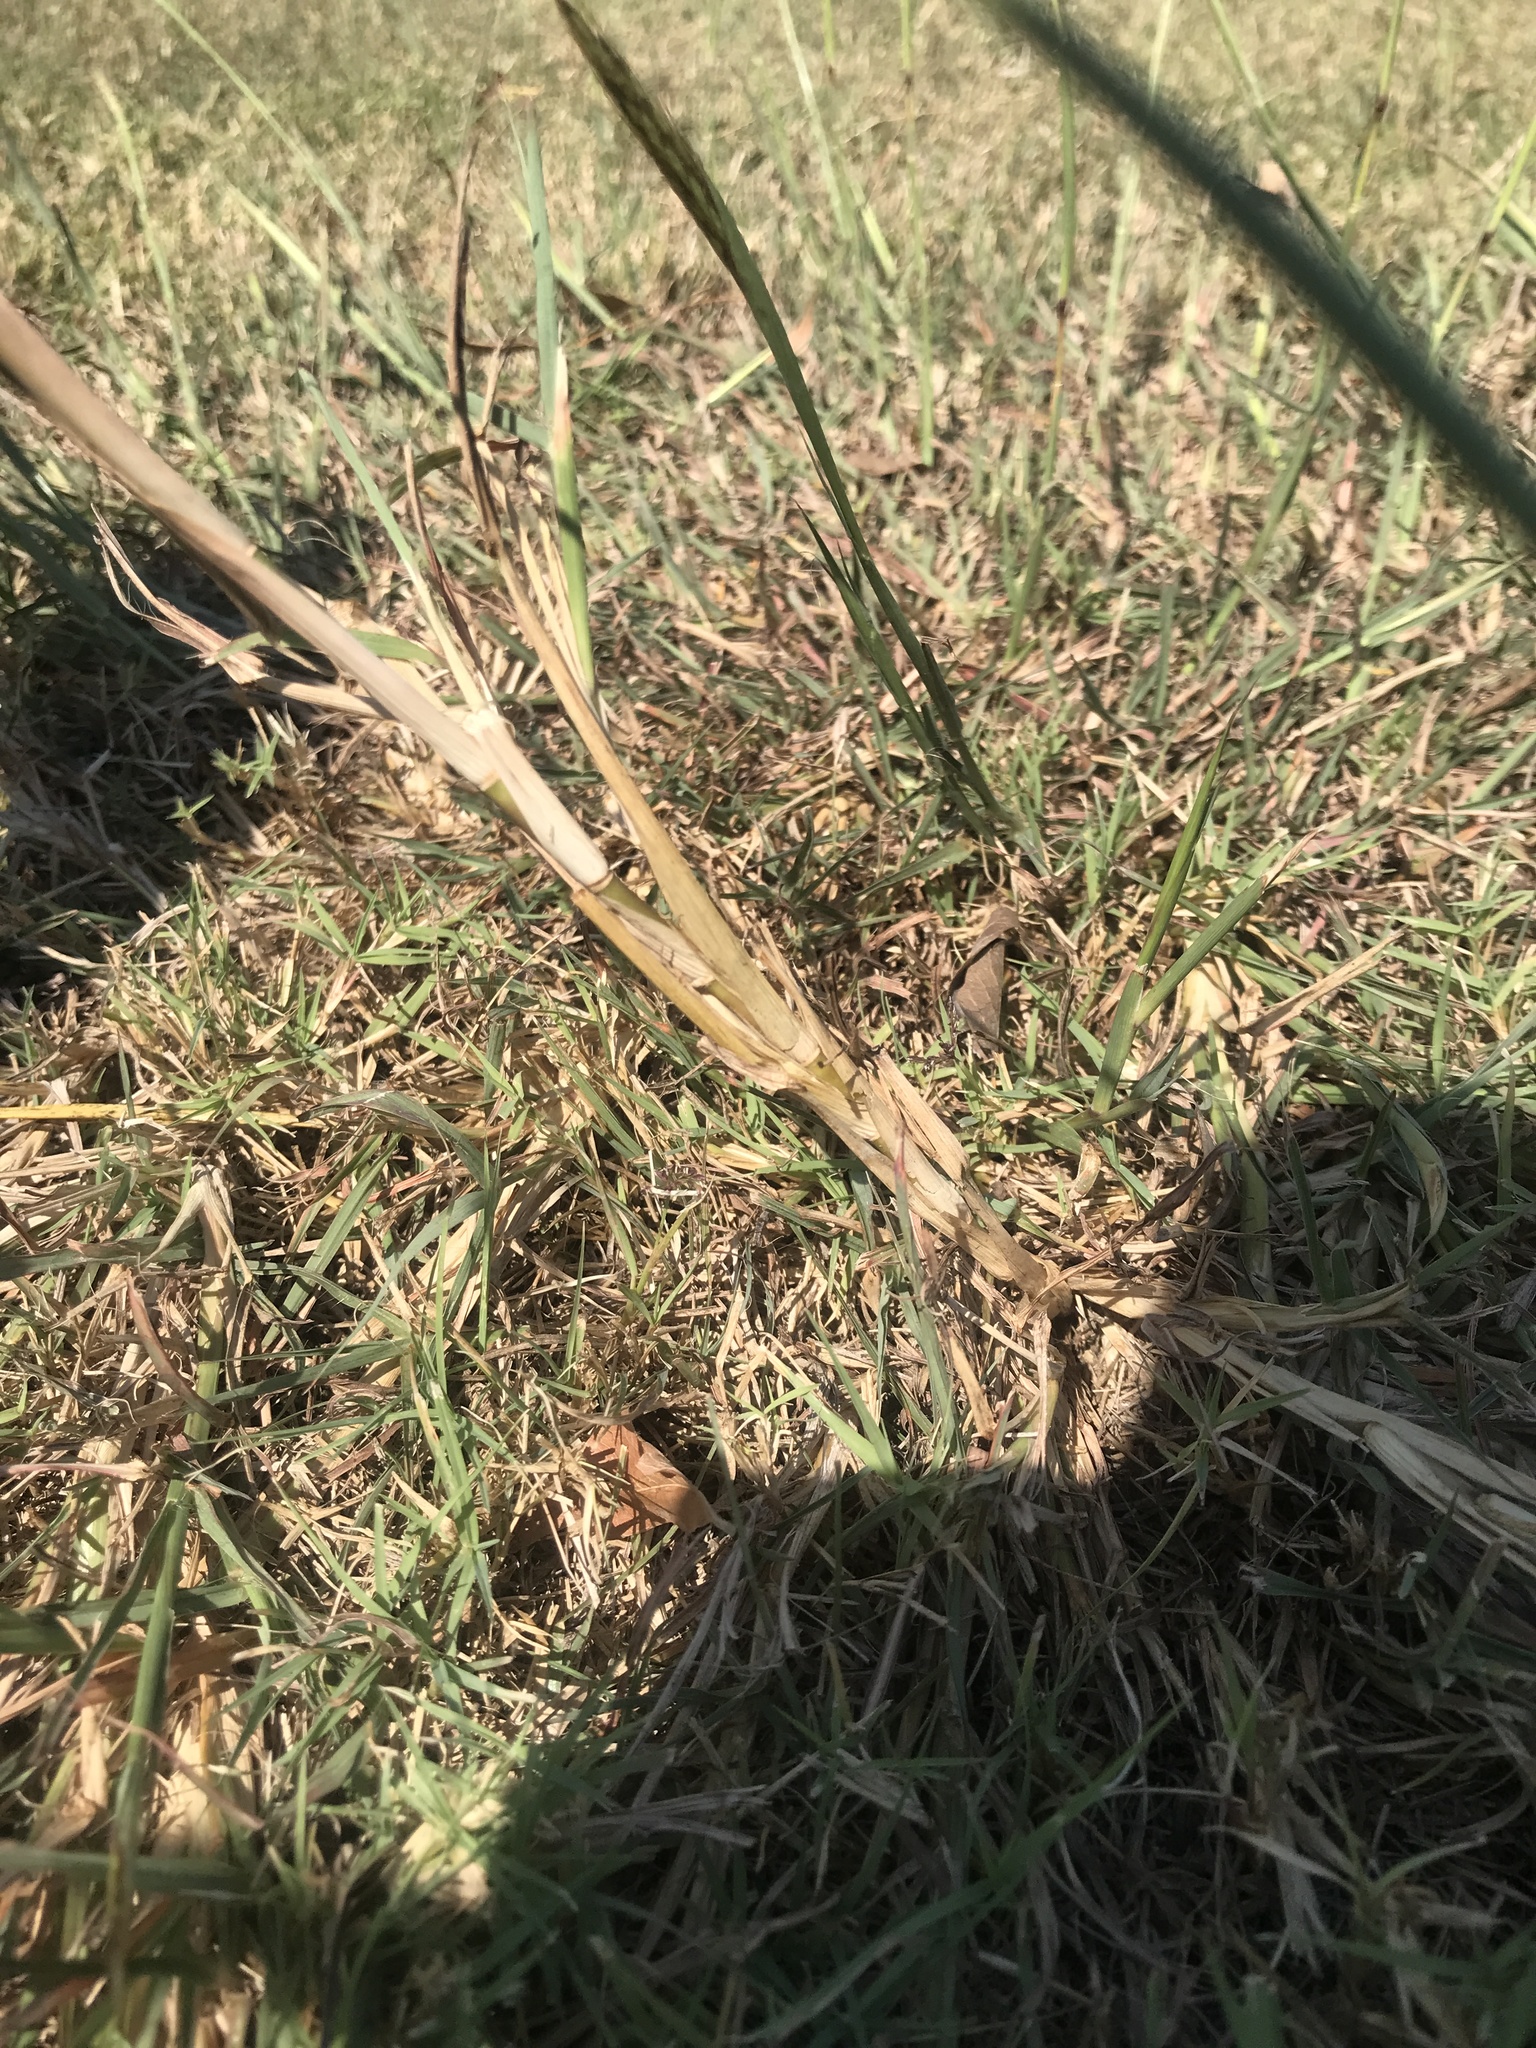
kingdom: Plantae
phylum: Tracheophyta
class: Liliopsida
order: Poales
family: Poaceae
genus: Bothriochloa
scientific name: Bothriochloa ischaemum
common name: Yellow bluestem
